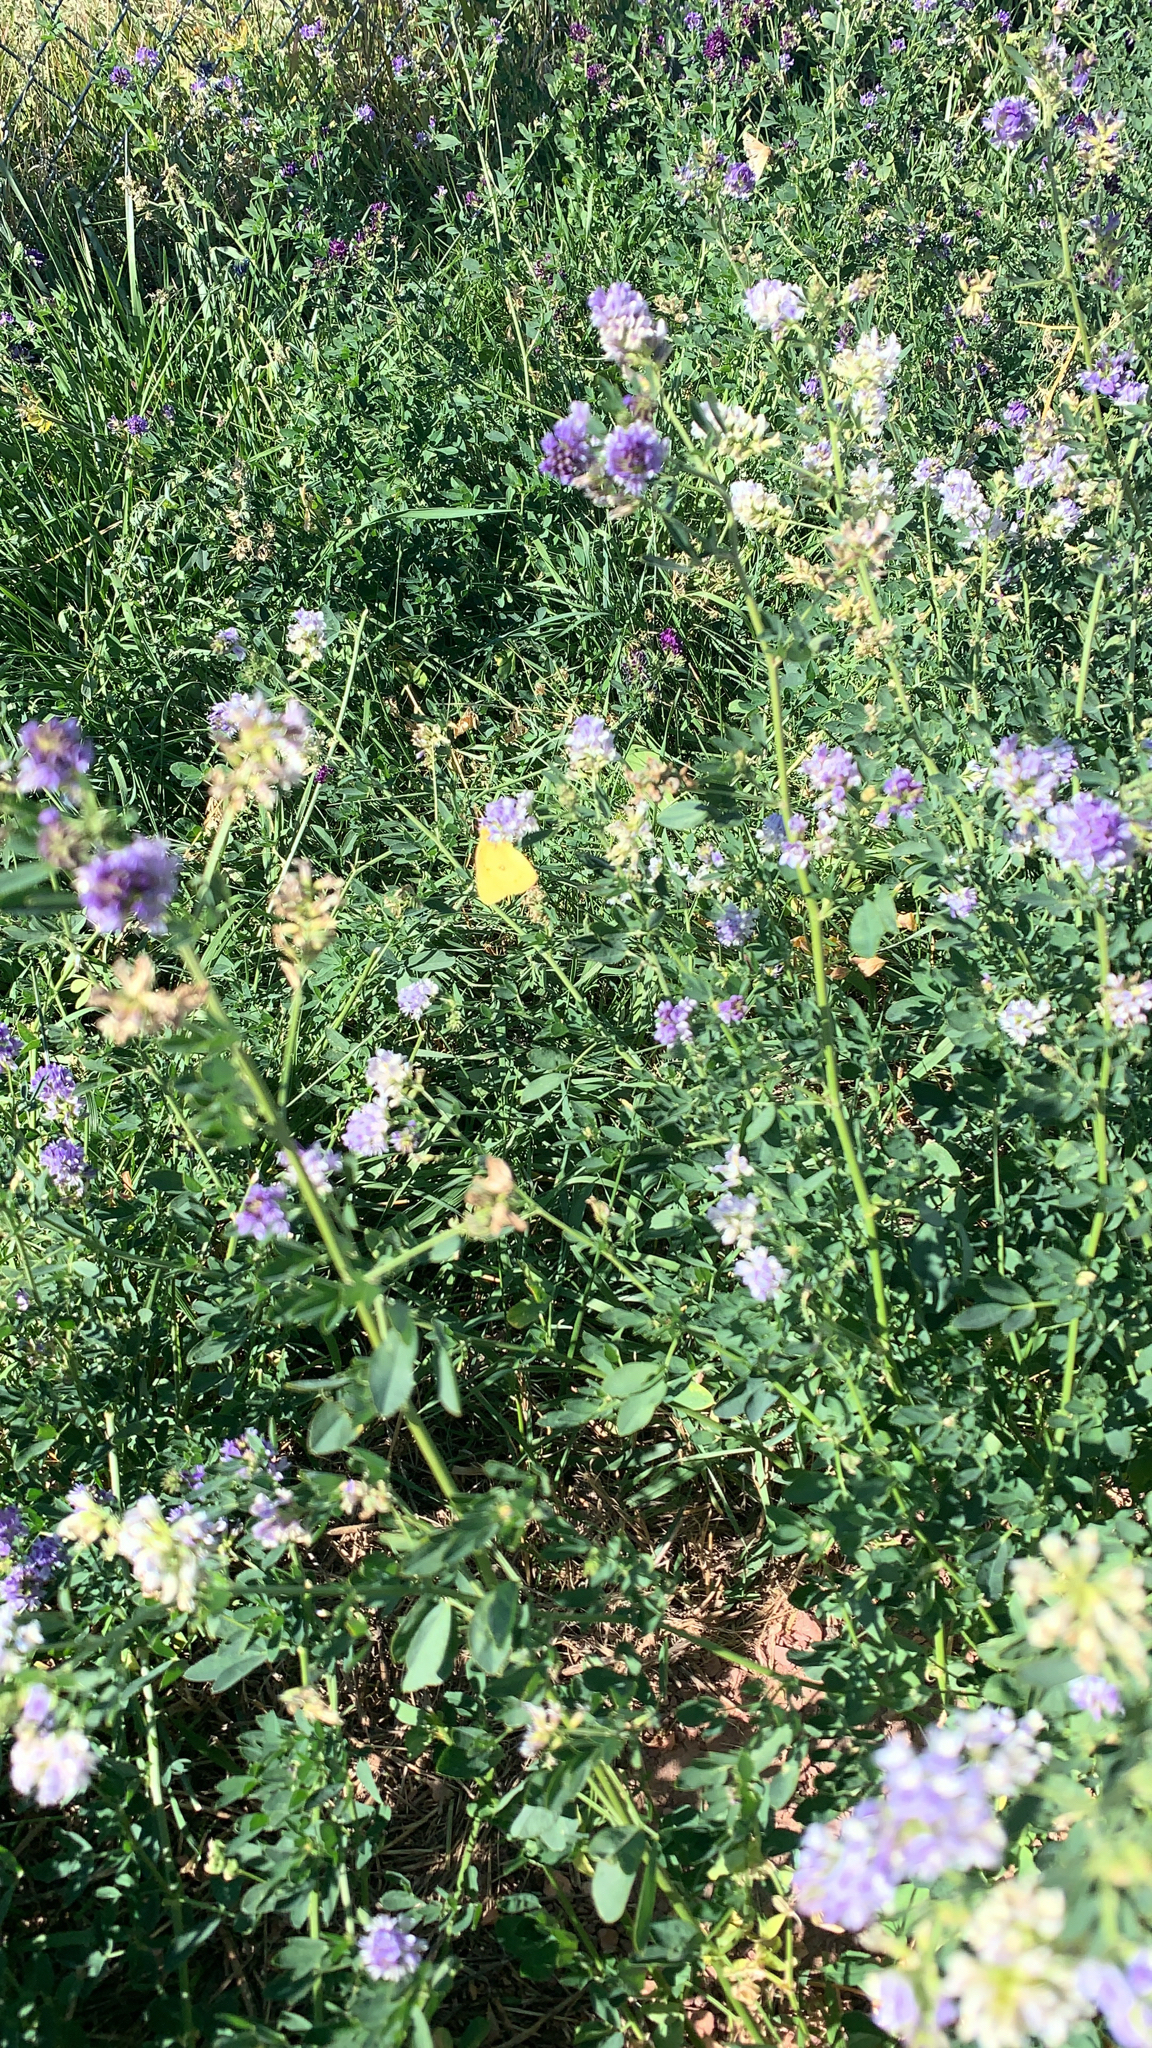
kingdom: Plantae
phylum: Tracheophyta
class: Magnoliopsida
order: Fabales
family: Fabaceae
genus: Medicago
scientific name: Medicago sativa
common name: Alfalfa
